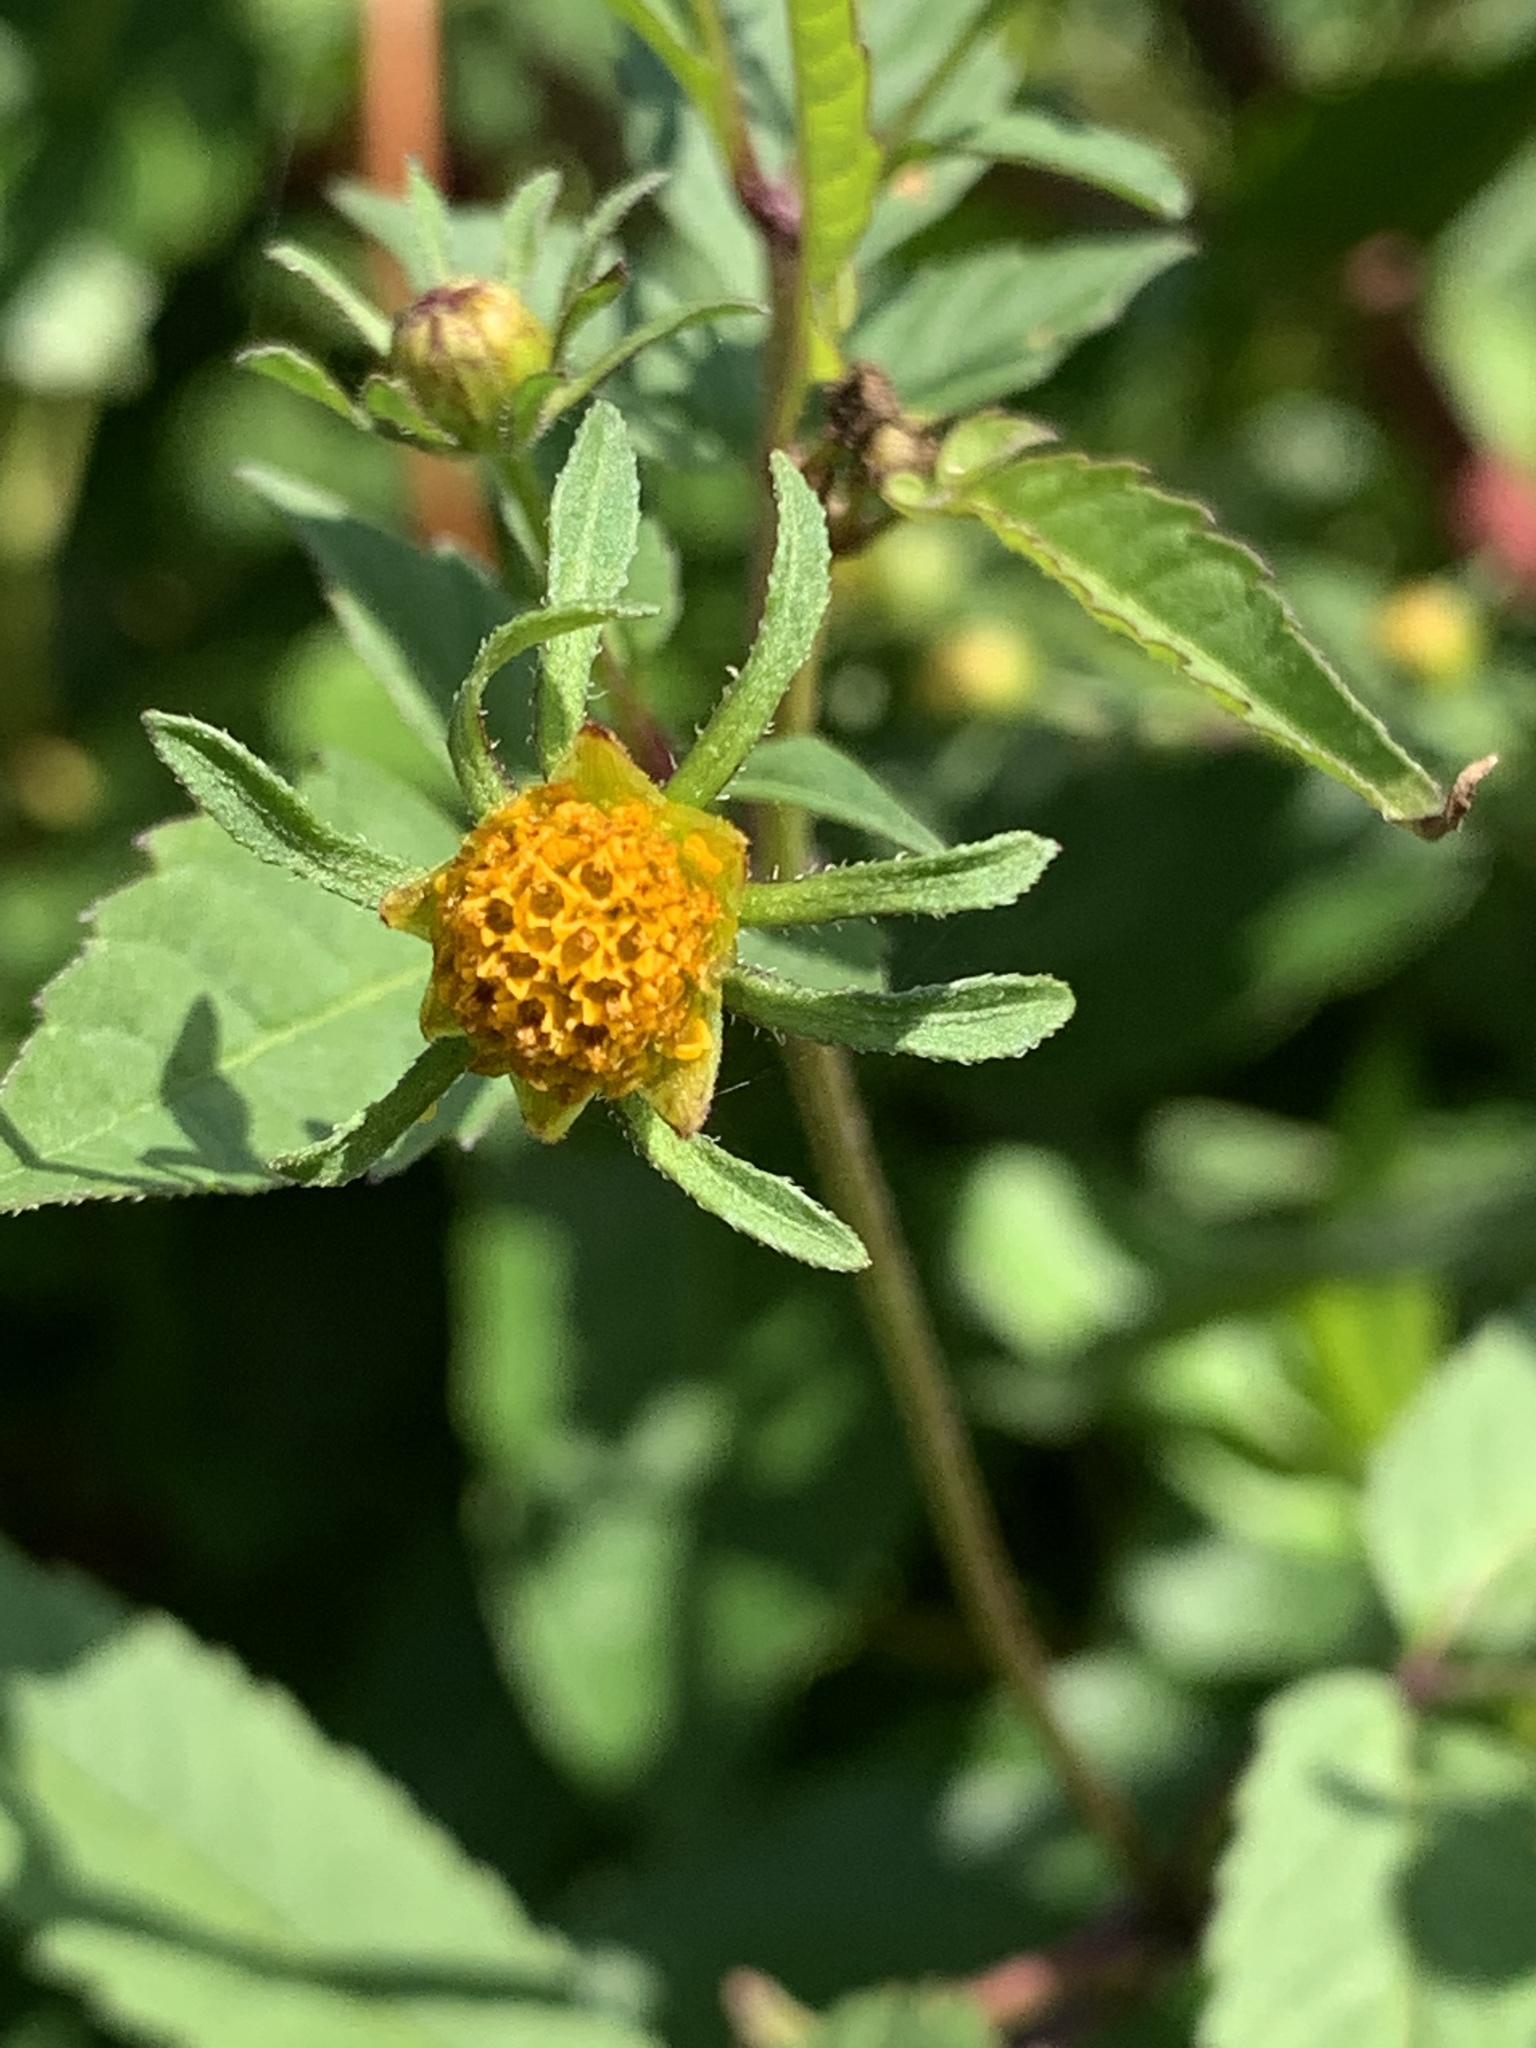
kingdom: Plantae
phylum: Tracheophyta
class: Magnoliopsida
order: Asterales
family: Asteraceae
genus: Bidens
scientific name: Bidens frondosa
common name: Beggarticks
